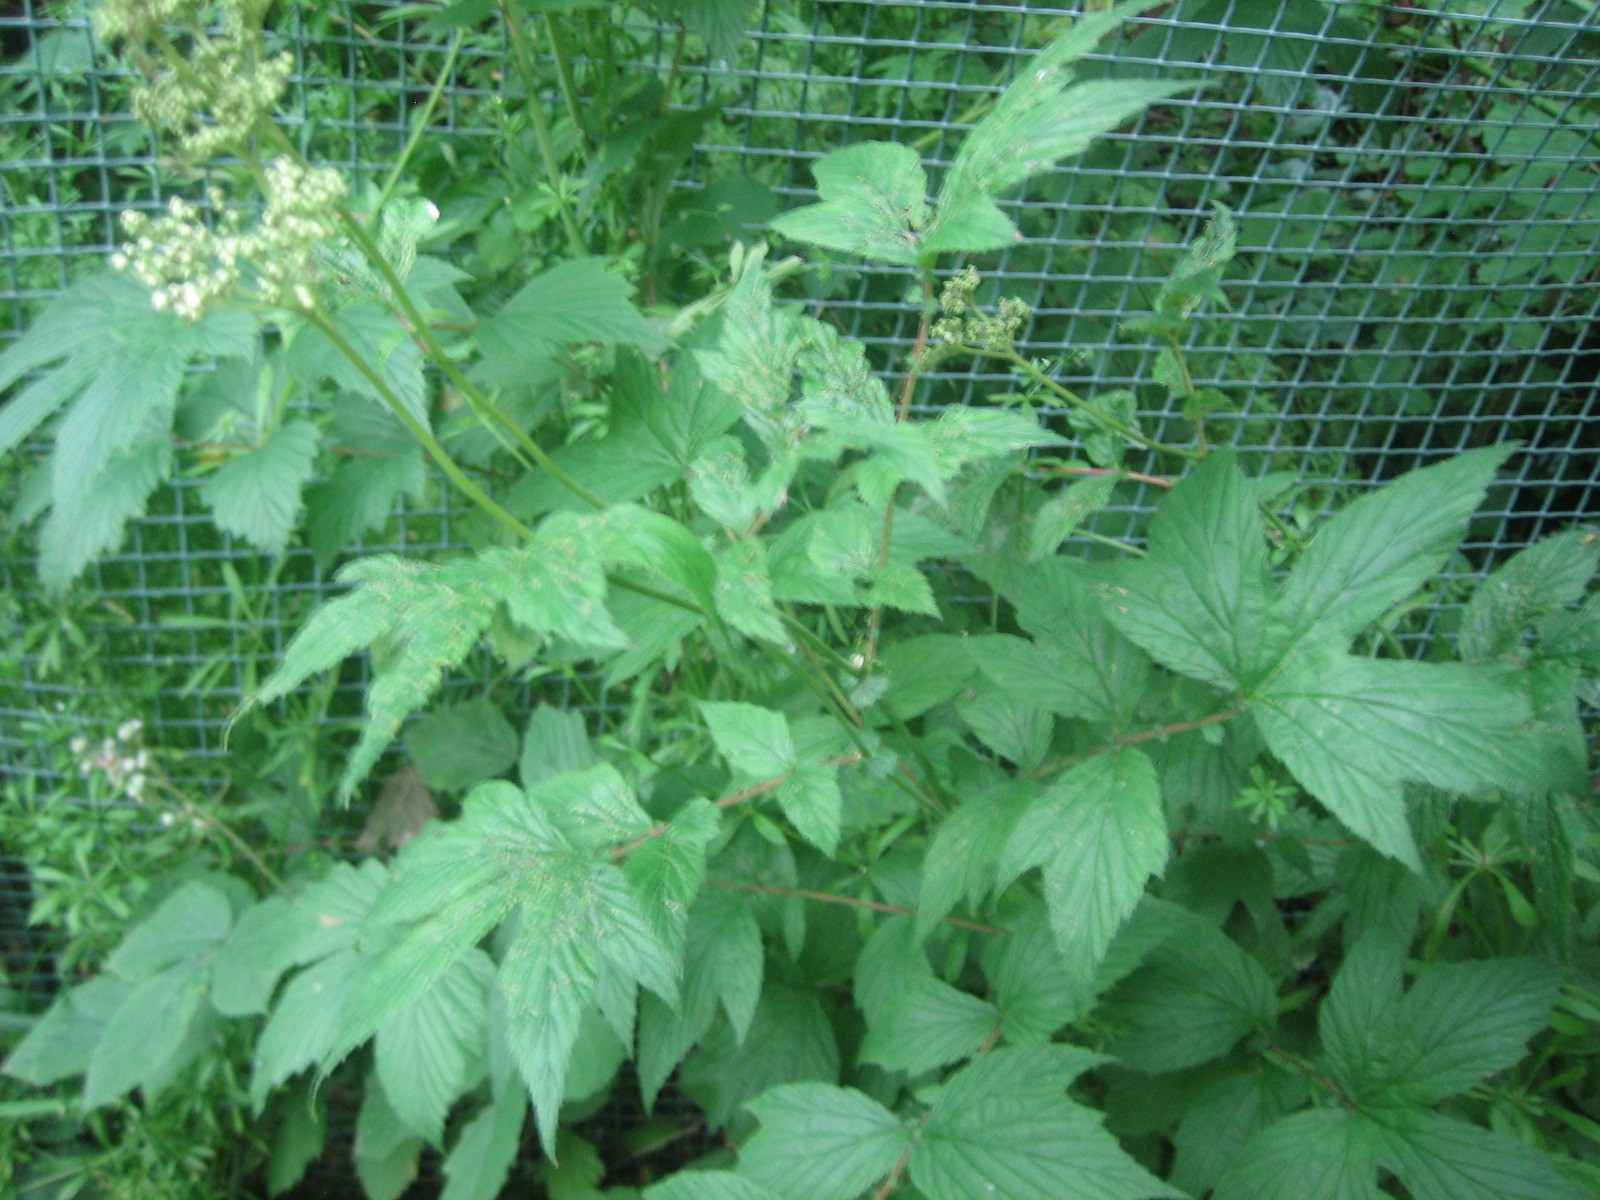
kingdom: Plantae
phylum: Tracheophyta
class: Magnoliopsida
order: Rosales
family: Rosaceae
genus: Filipendula
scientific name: Filipendula ulmaria
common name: Meadowsweet
